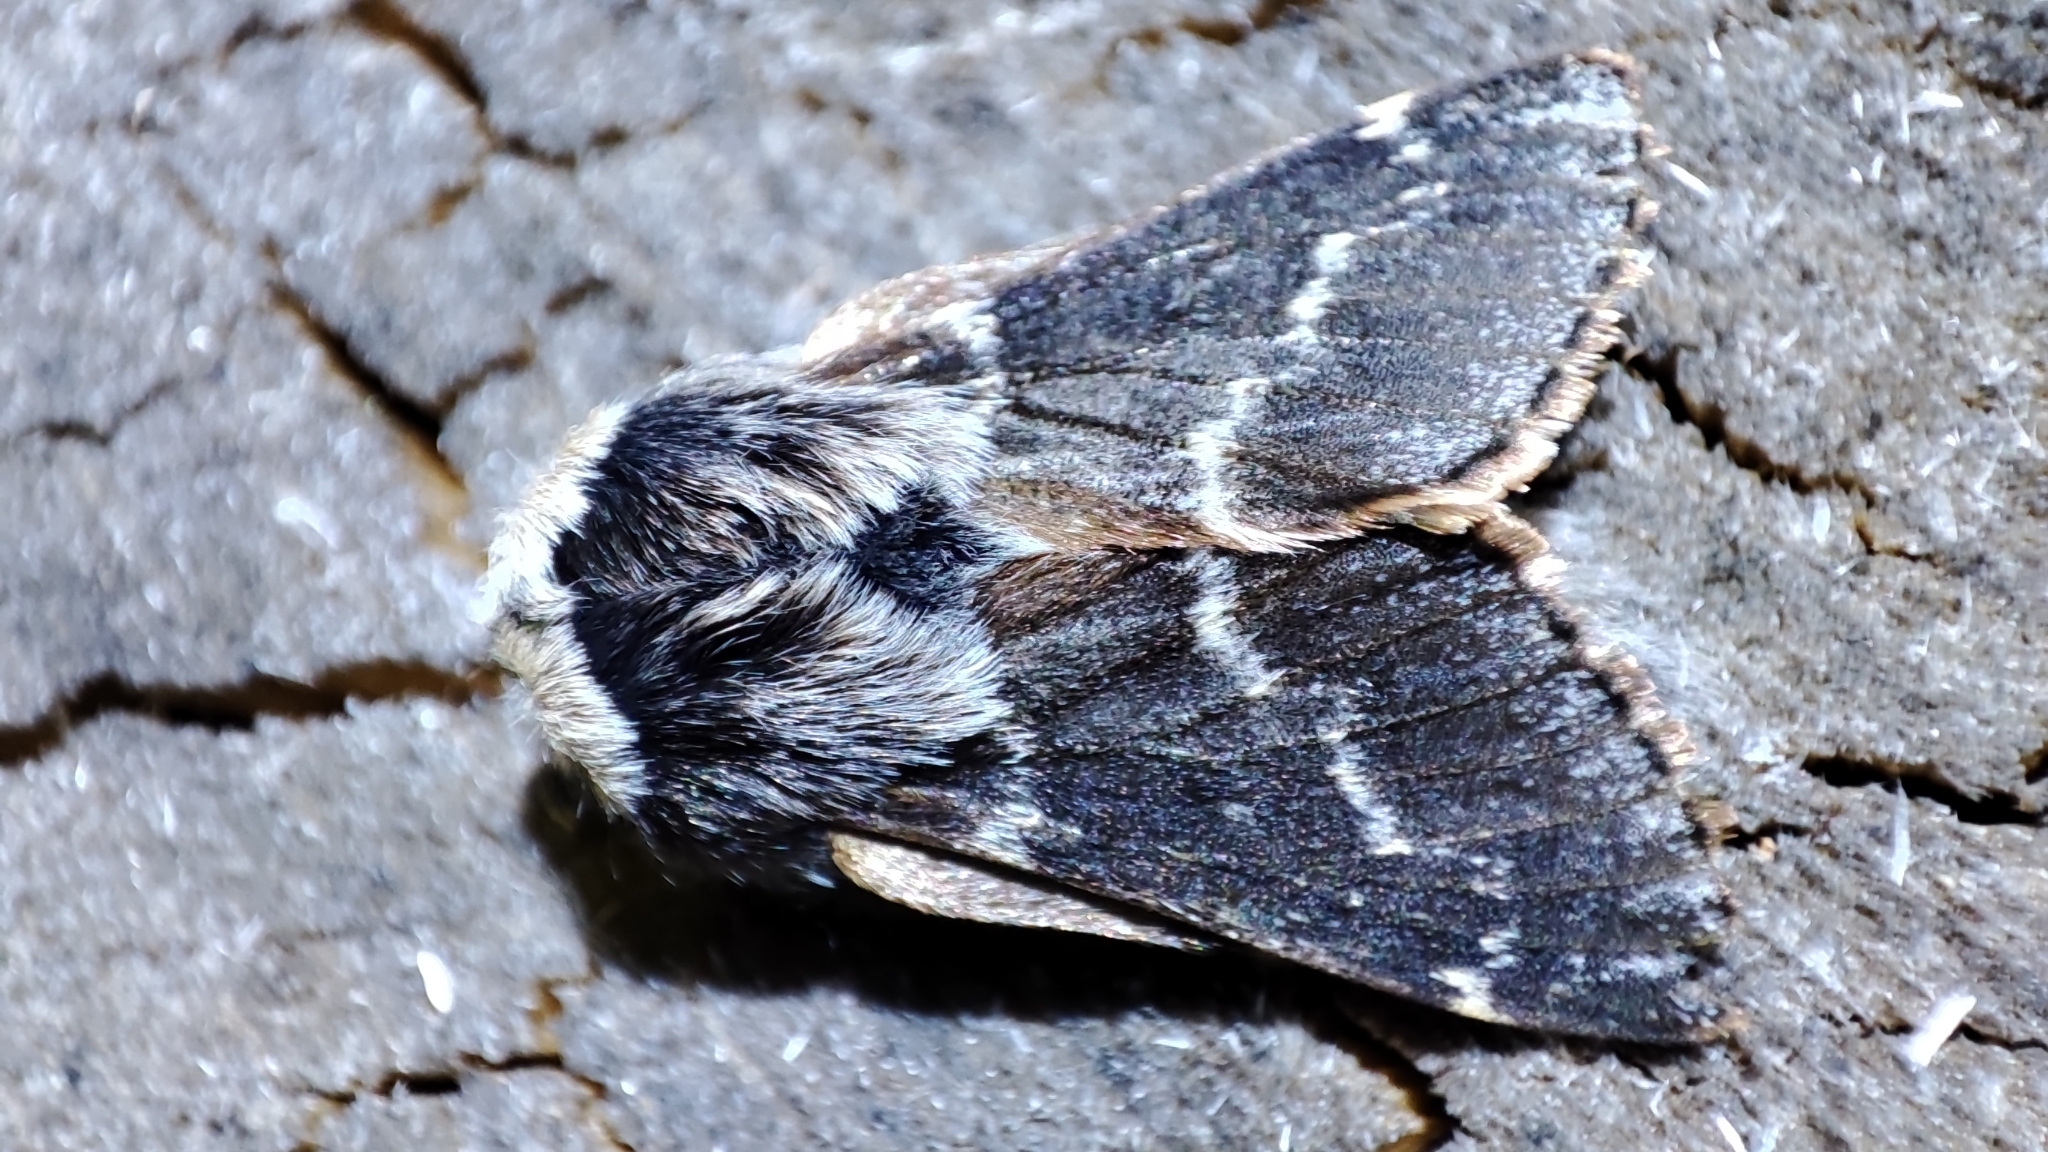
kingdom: Animalia
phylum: Arthropoda
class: Insecta
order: Lepidoptera
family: Lasiocampidae
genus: Poecilocampa
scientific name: Poecilocampa populi
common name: December moth
